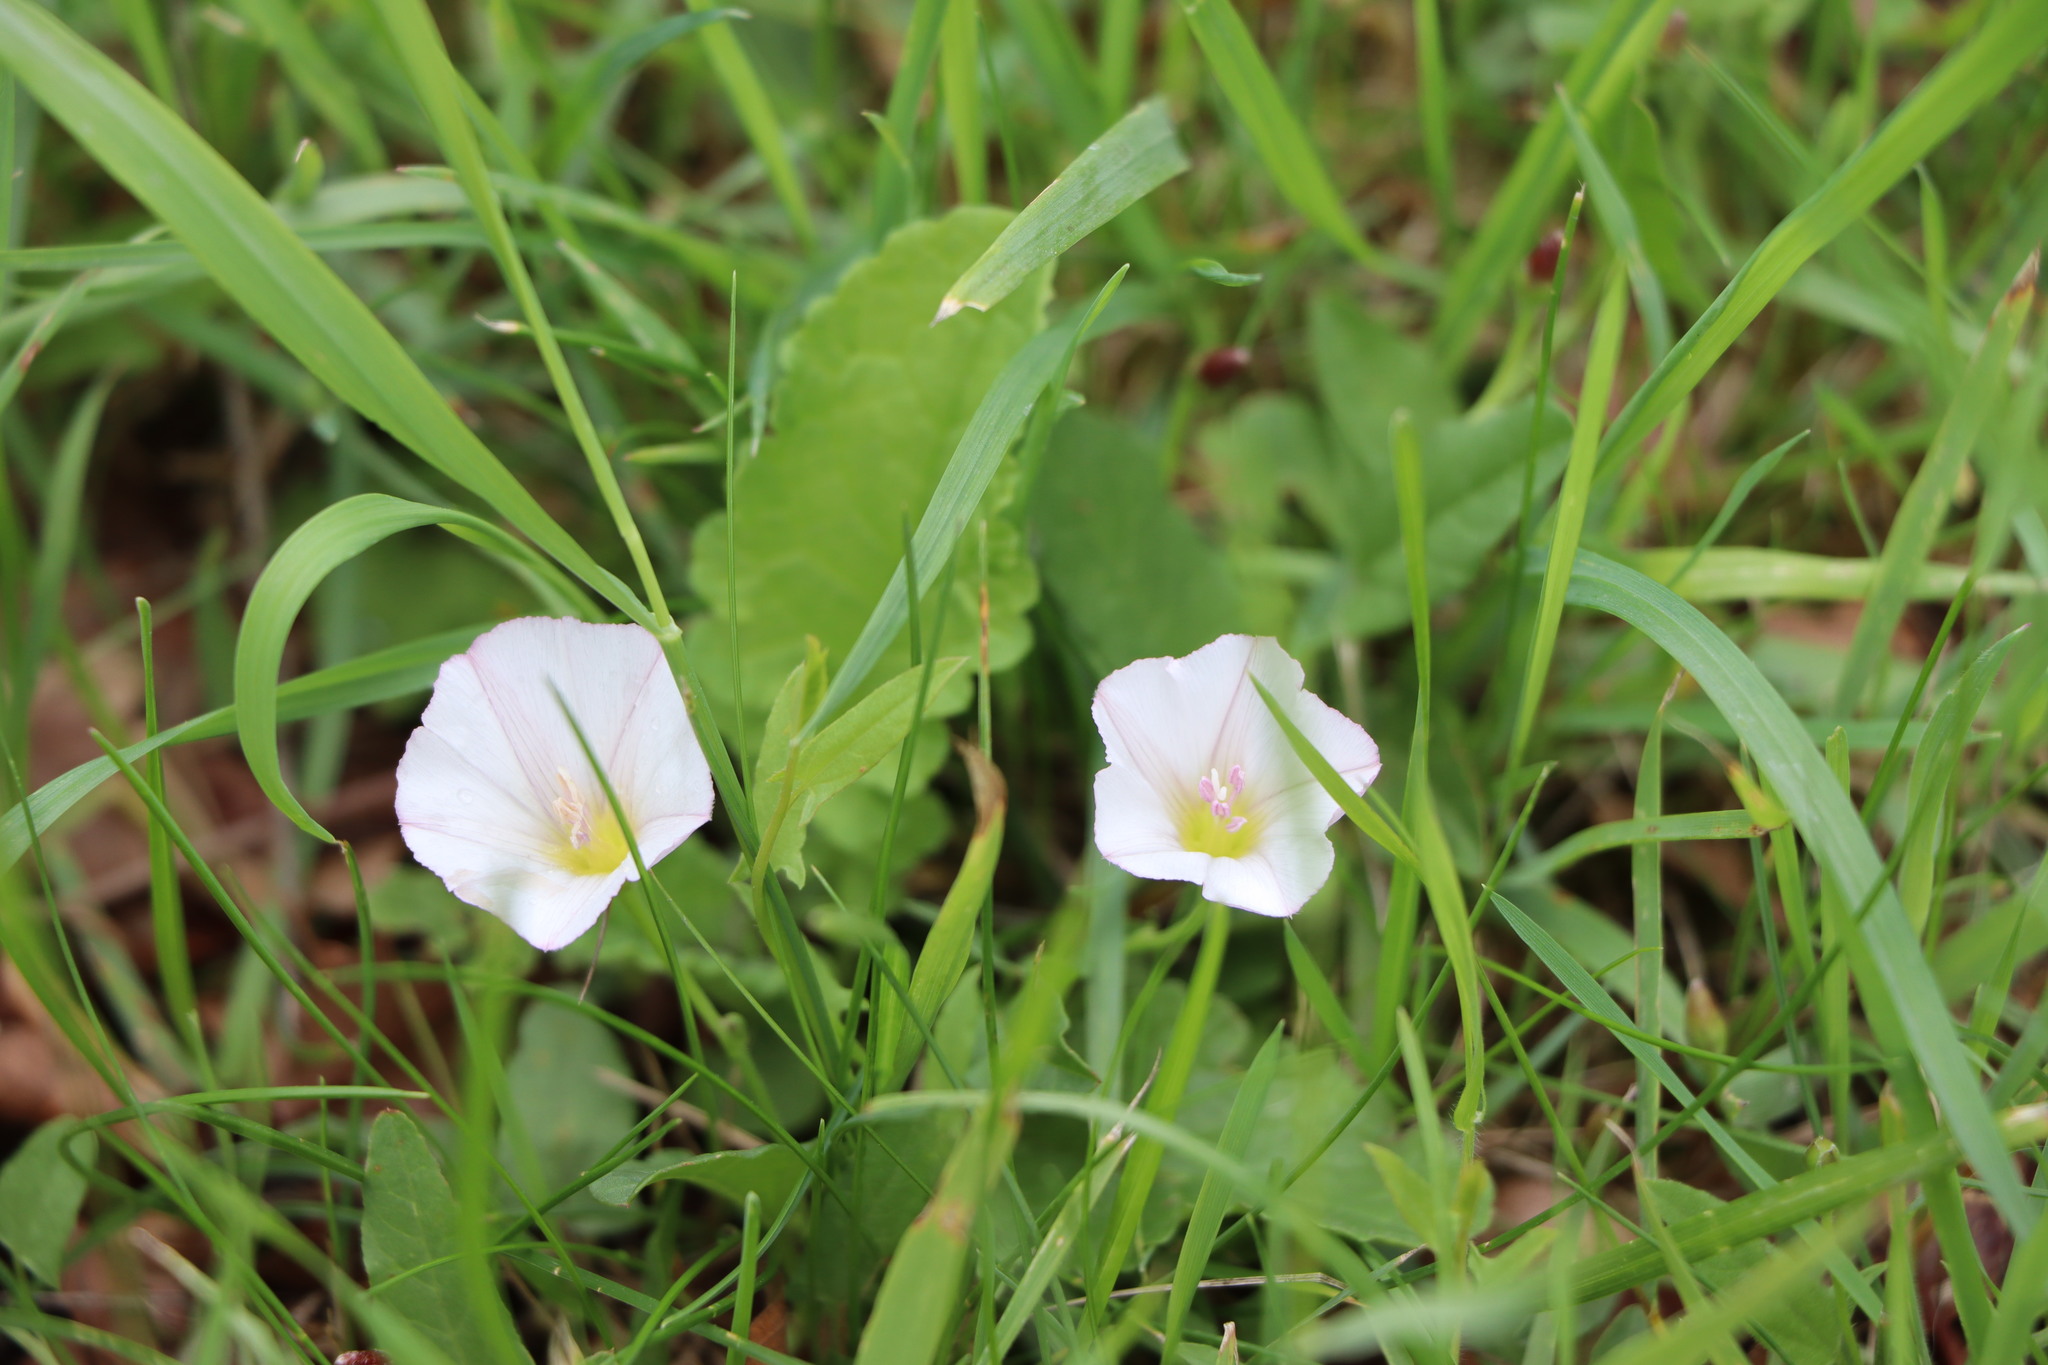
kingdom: Plantae
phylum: Tracheophyta
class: Magnoliopsida
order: Solanales
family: Convolvulaceae
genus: Convolvulus
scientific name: Convolvulus arvensis
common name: Field bindweed
